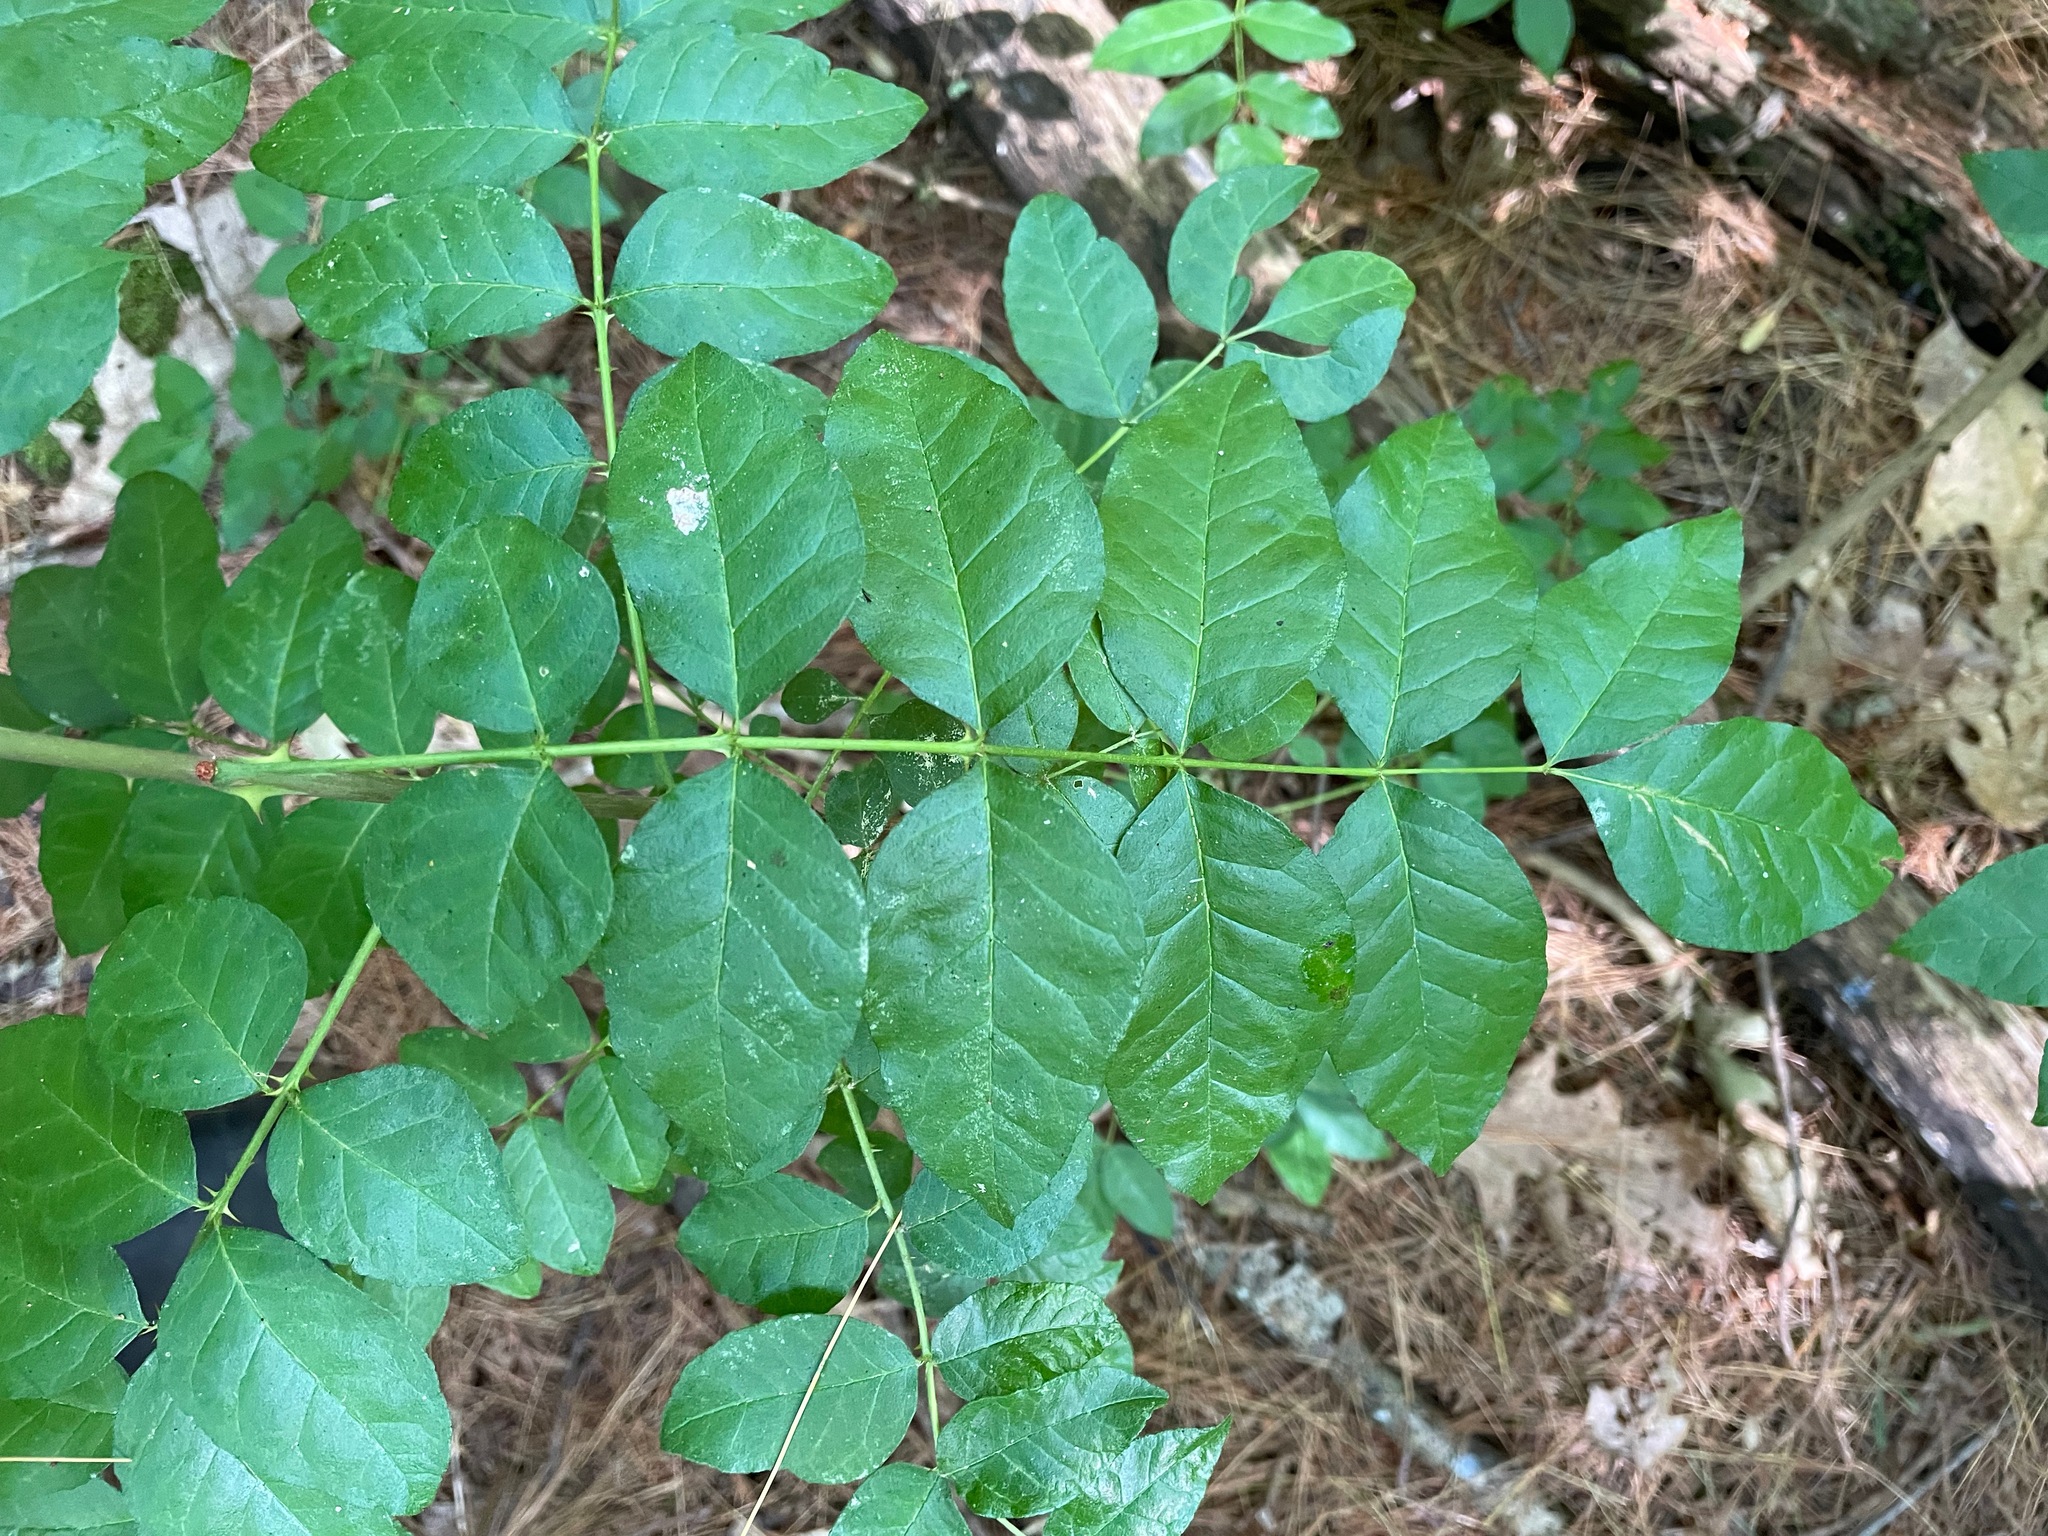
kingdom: Plantae
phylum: Tracheophyta
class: Magnoliopsida
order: Sapindales
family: Rutaceae
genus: Zanthoxylum
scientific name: Zanthoxylum americanum
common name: Northern prickly-ash
